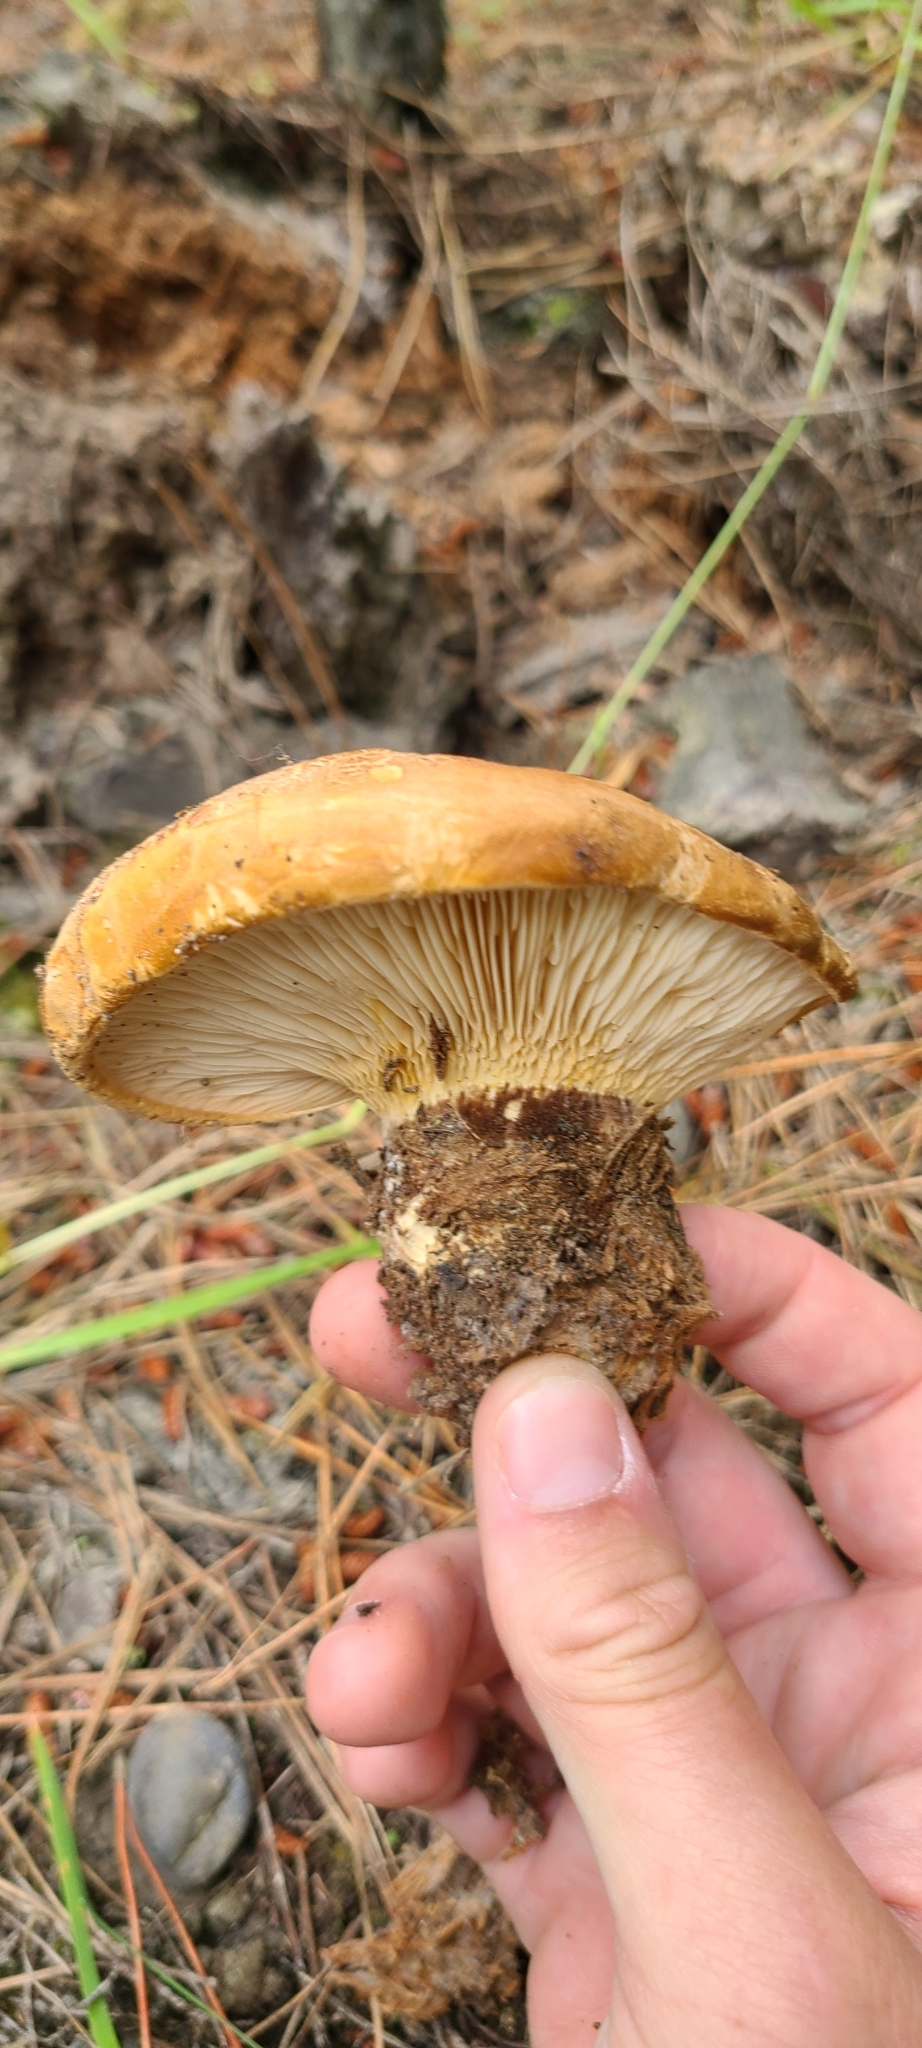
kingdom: Fungi
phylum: Basidiomycota
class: Agaricomycetes
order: Boletales
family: Tapinellaceae
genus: Tapinella
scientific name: Tapinella atrotomentosa
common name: Velvet rollrim
